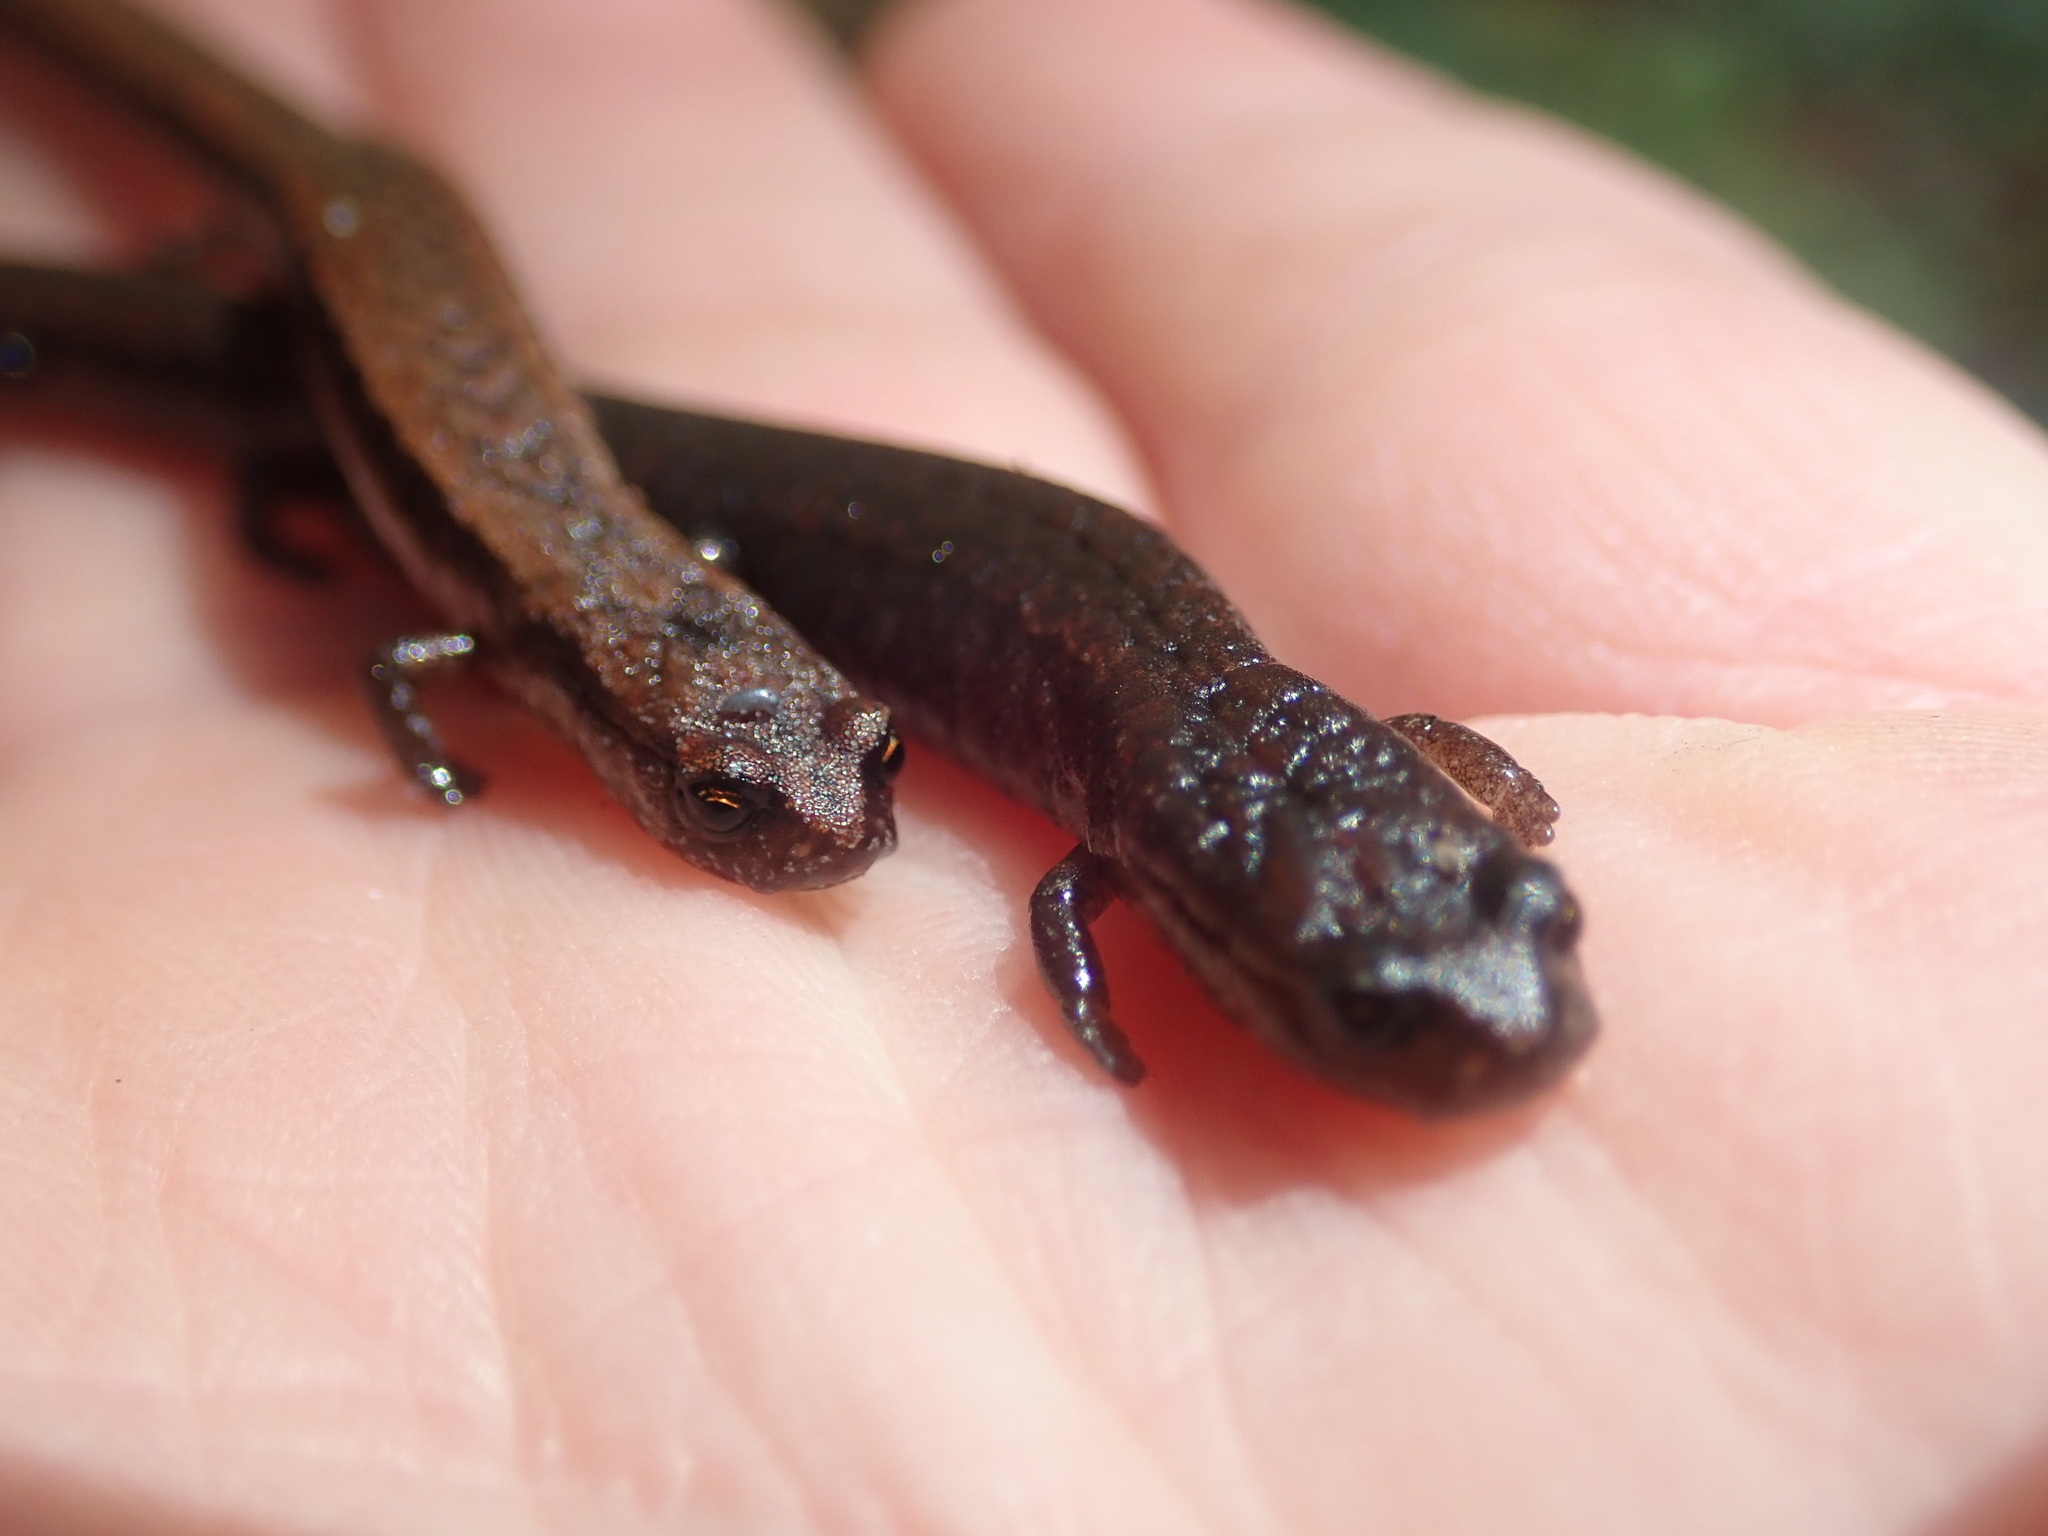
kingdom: Animalia
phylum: Chordata
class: Amphibia
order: Caudata
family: Plethodontidae
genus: Batrachoseps
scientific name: Batrachoseps attenuatus
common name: California slender salamander
